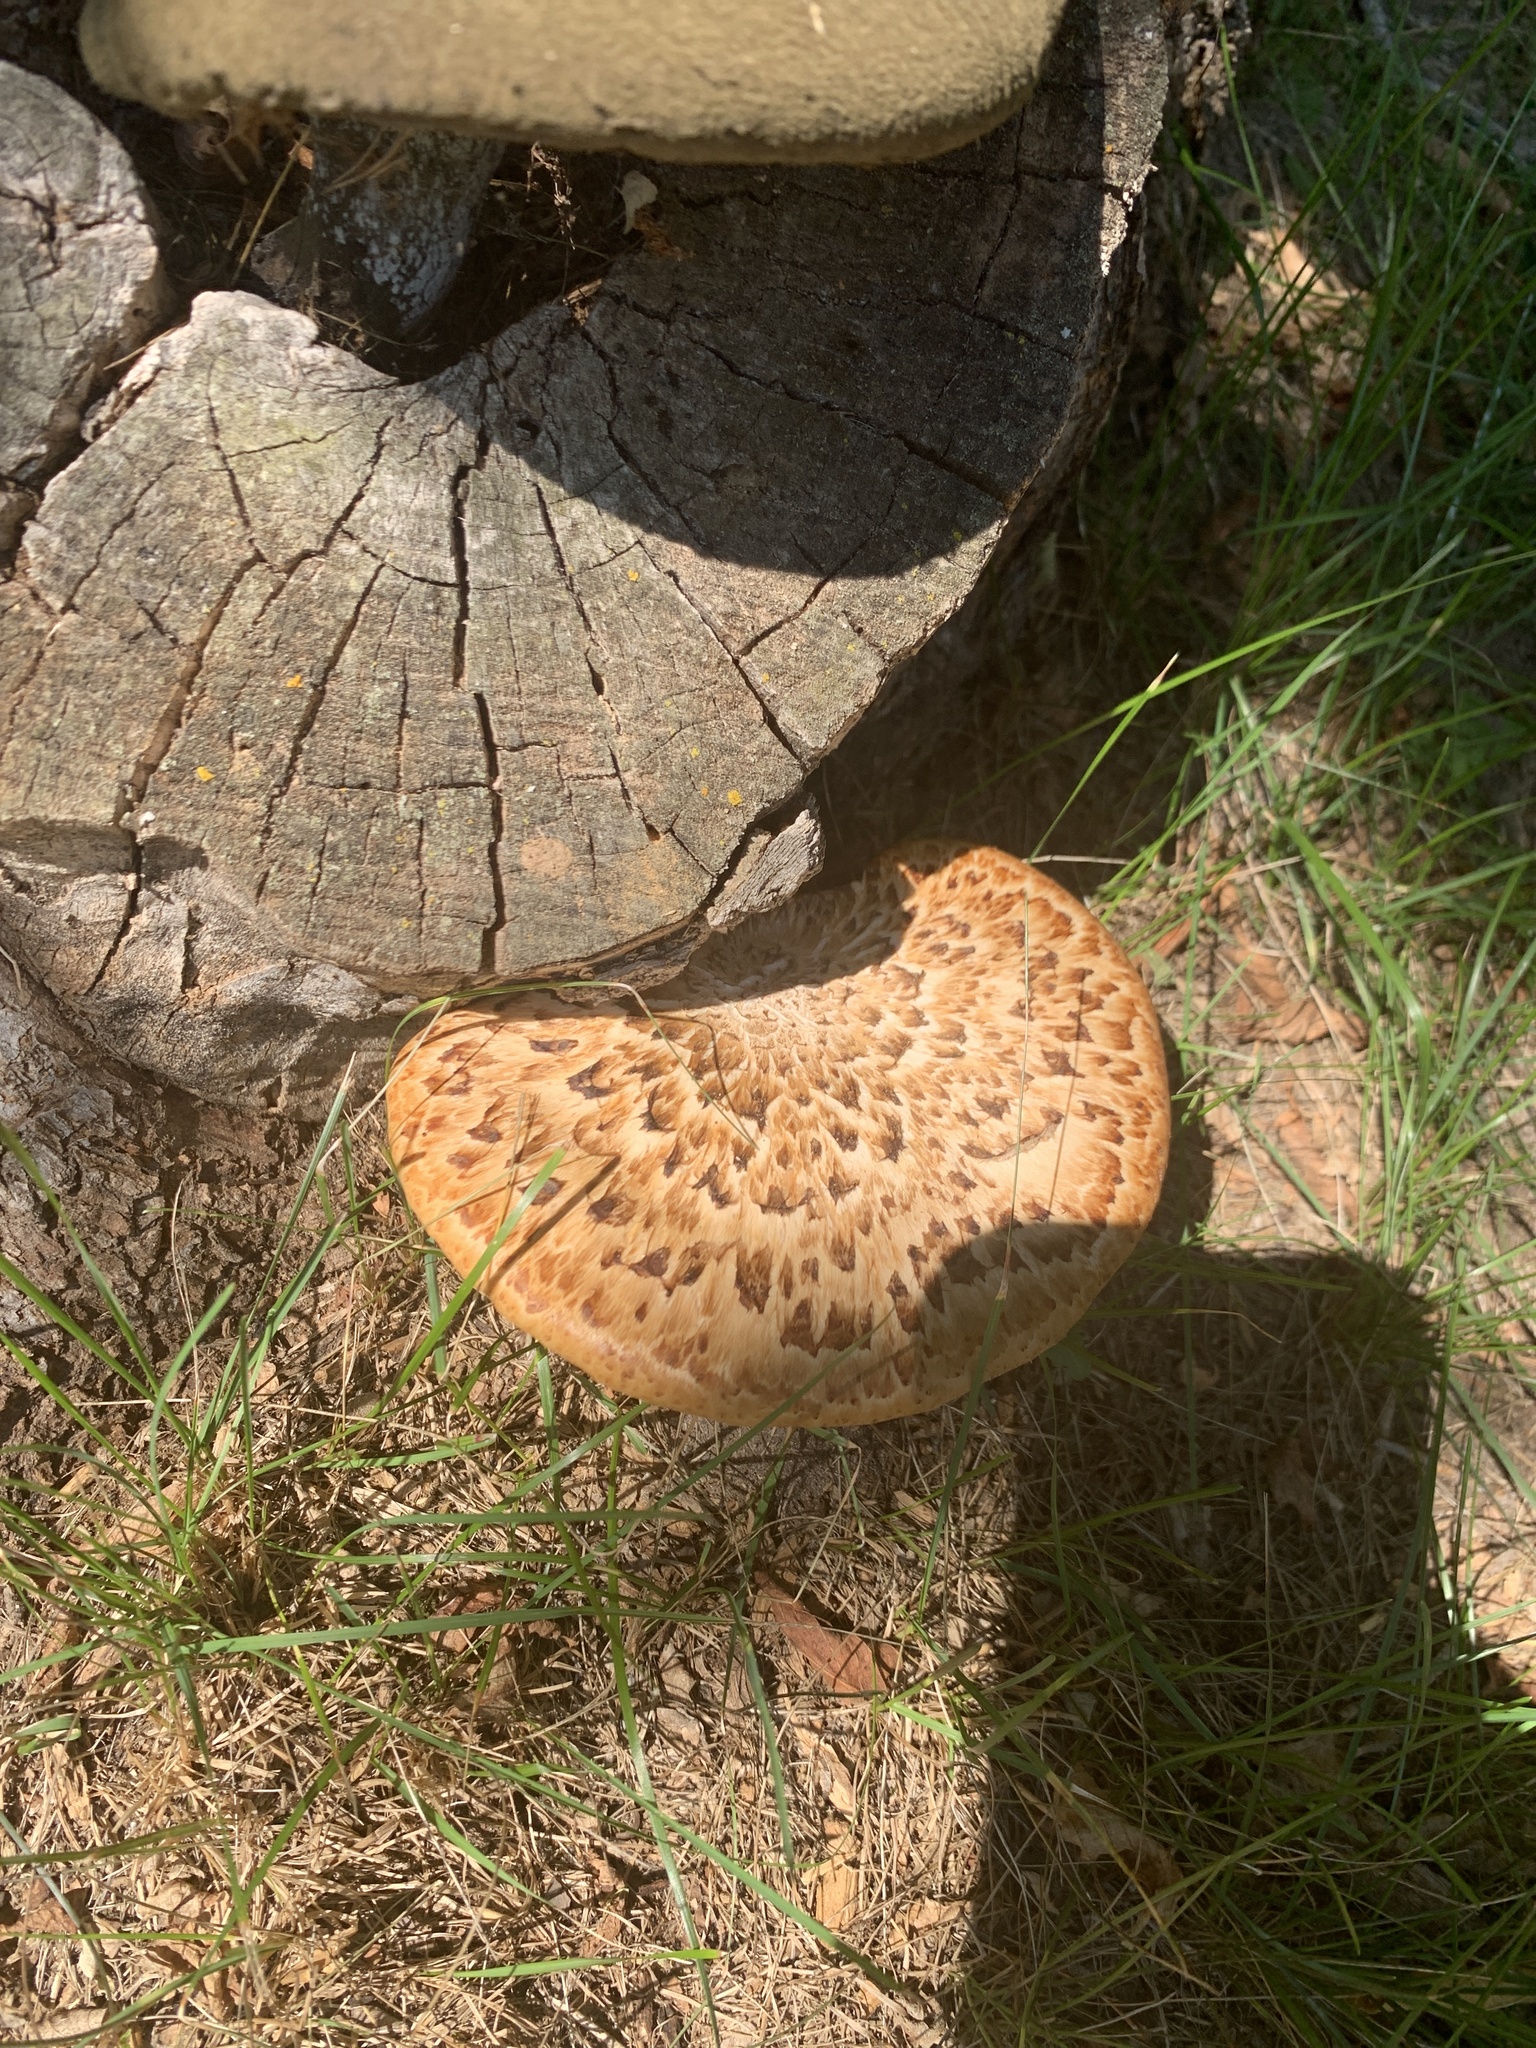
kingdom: Fungi
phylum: Basidiomycota
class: Agaricomycetes
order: Polyporales
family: Polyporaceae
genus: Cerioporus
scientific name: Cerioporus squamosus
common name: Dryad's saddle
